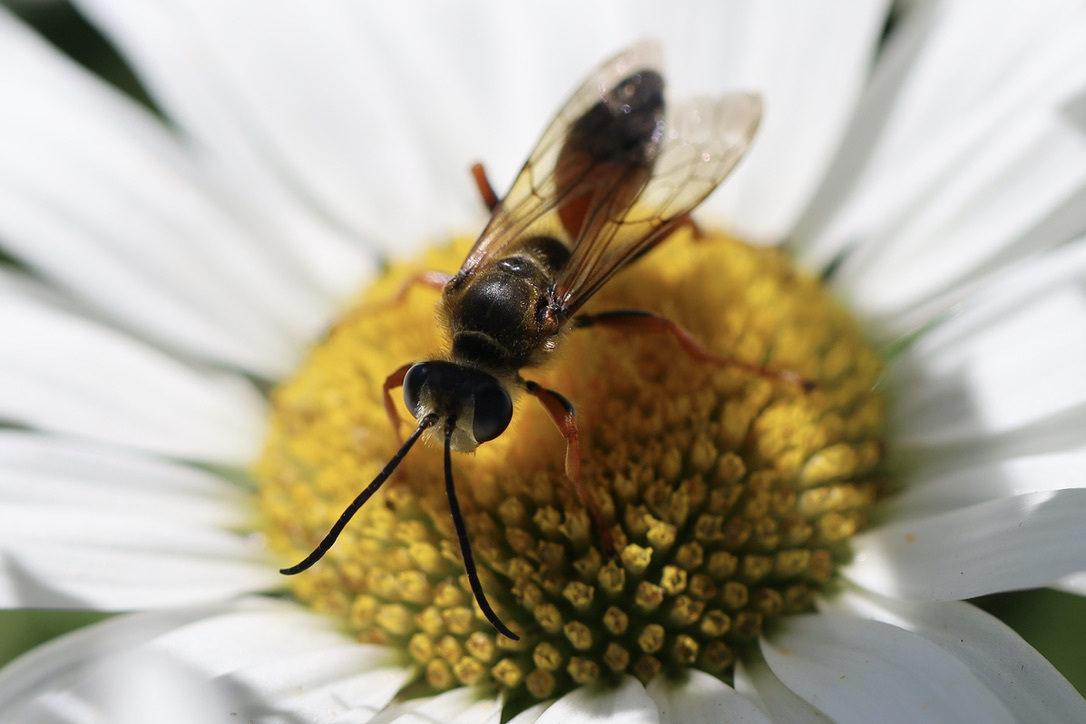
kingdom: Animalia
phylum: Arthropoda
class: Insecta
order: Hymenoptera
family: Sphecidae
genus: Sphex
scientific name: Sphex ichneumoneus
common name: Great golden digger wasp
